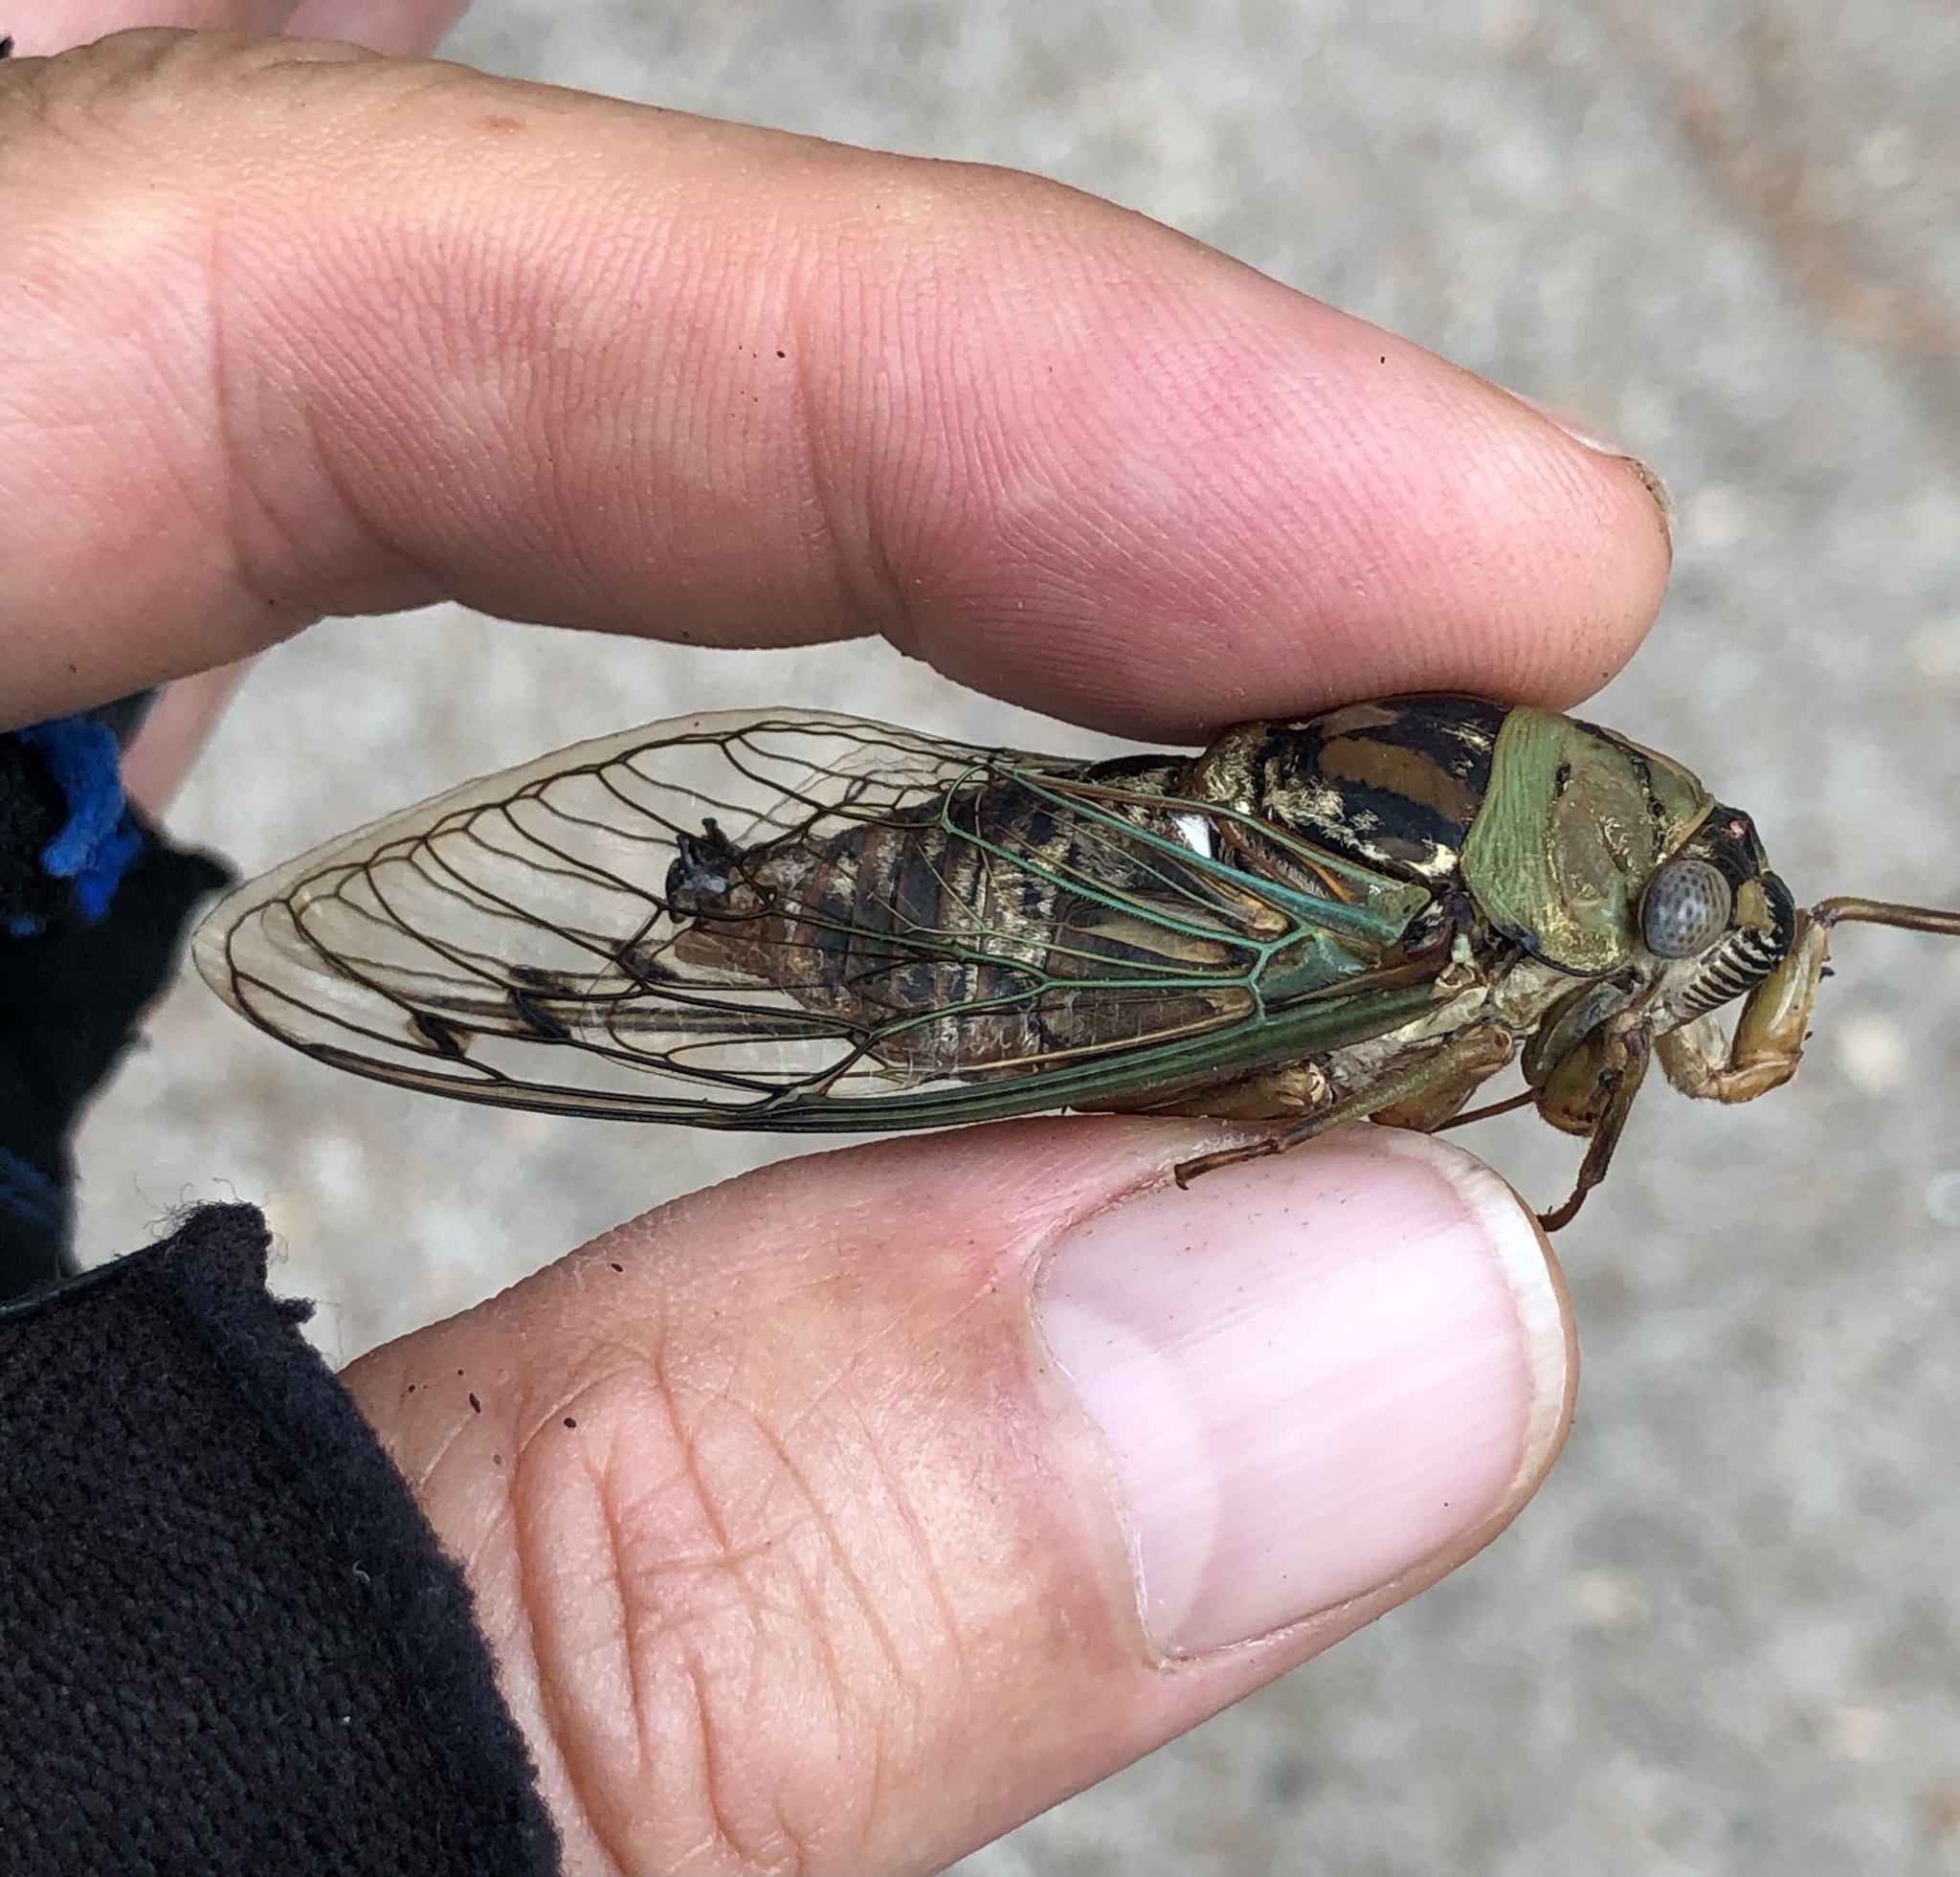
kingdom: Animalia
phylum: Arthropoda
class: Insecta
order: Hemiptera
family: Cicadidae
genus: Megatibicen
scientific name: Megatibicen resh
